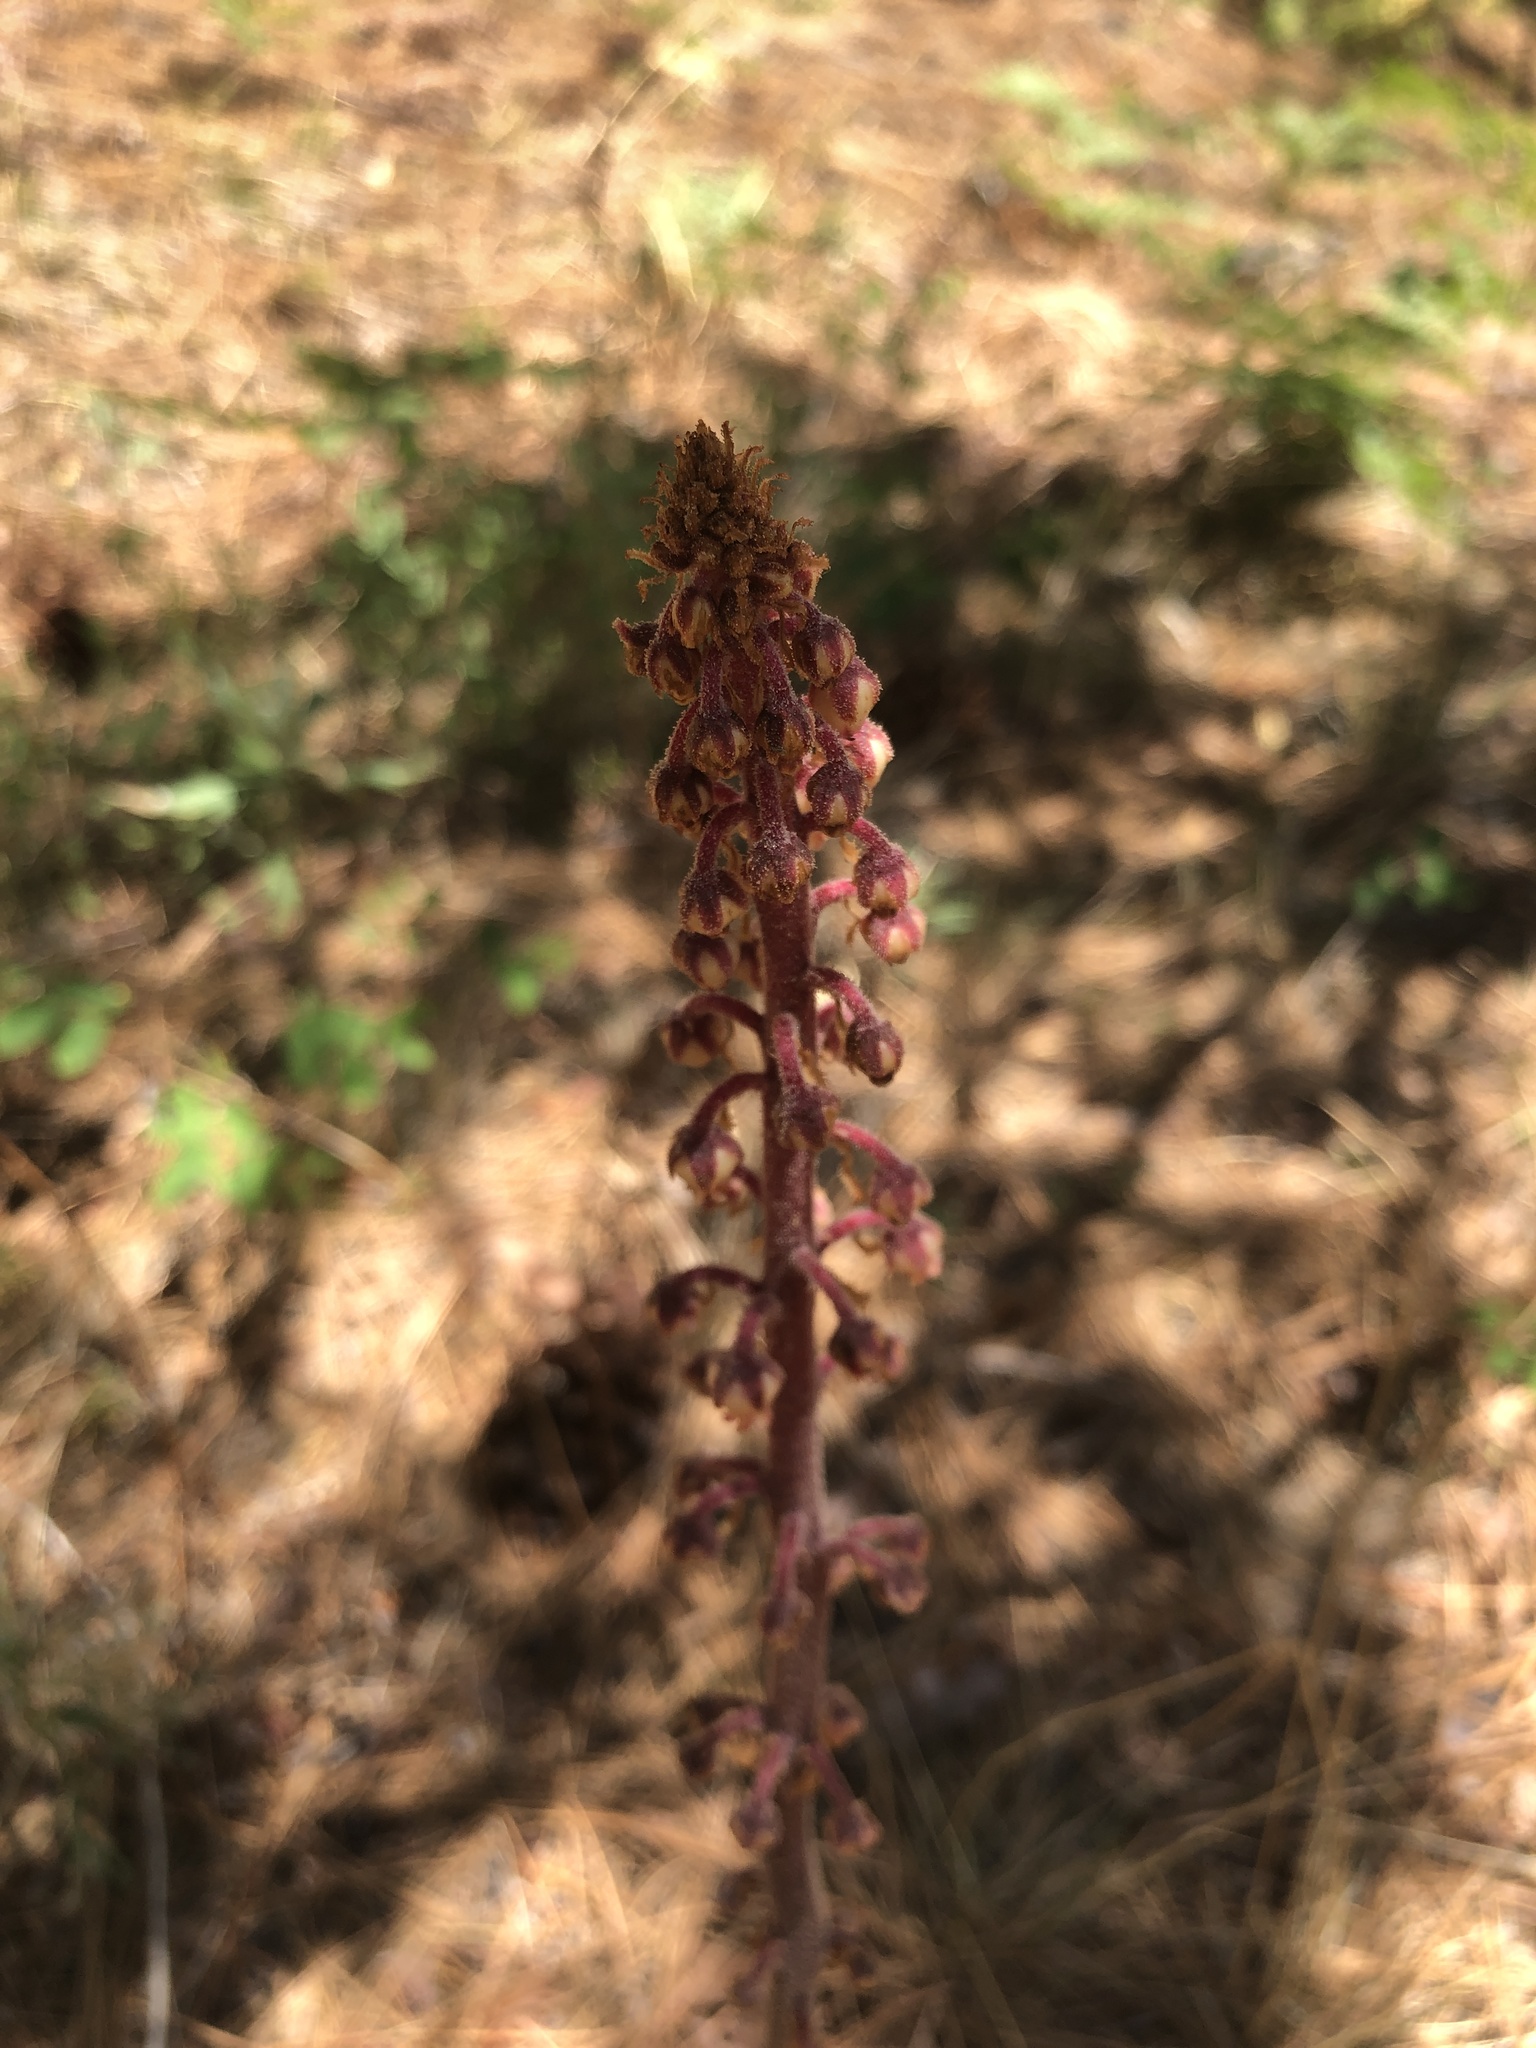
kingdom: Plantae
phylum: Tracheophyta
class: Magnoliopsida
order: Ericales
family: Ericaceae
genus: Pterospora
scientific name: Pterospora andromedea
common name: Giant bird's-nest
